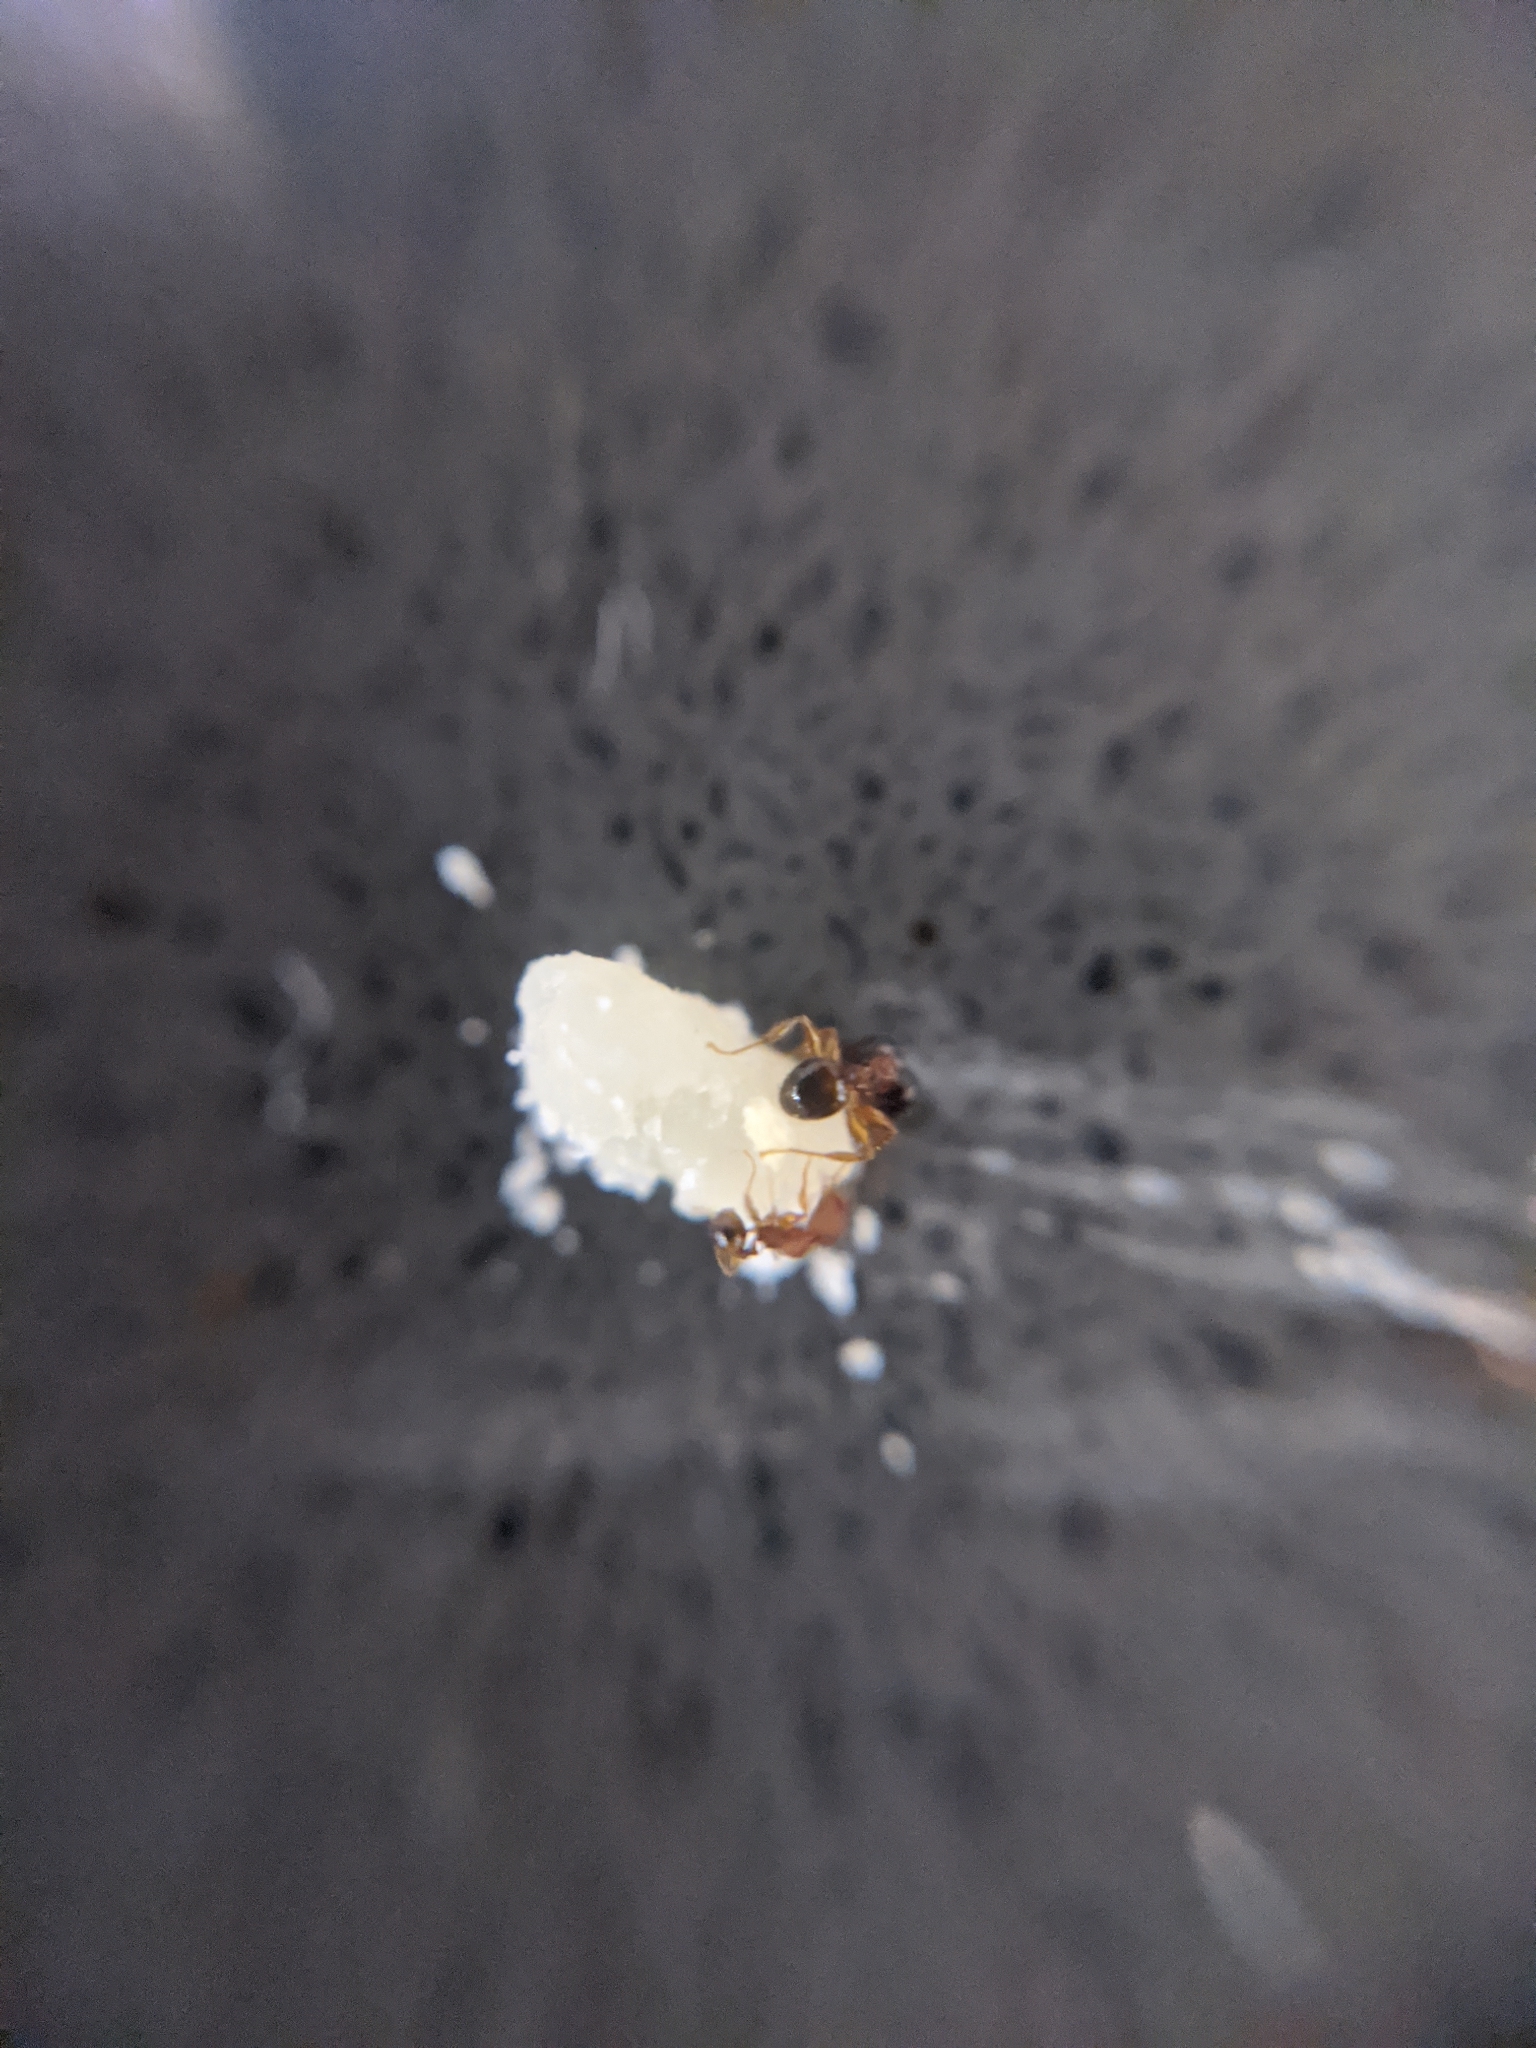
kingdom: Animalia
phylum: Arthropoda
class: Insecta
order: Hymenoptera
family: Formicidae
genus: Pheidole
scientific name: Pheidole navigans
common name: Navigating big-headed ant
